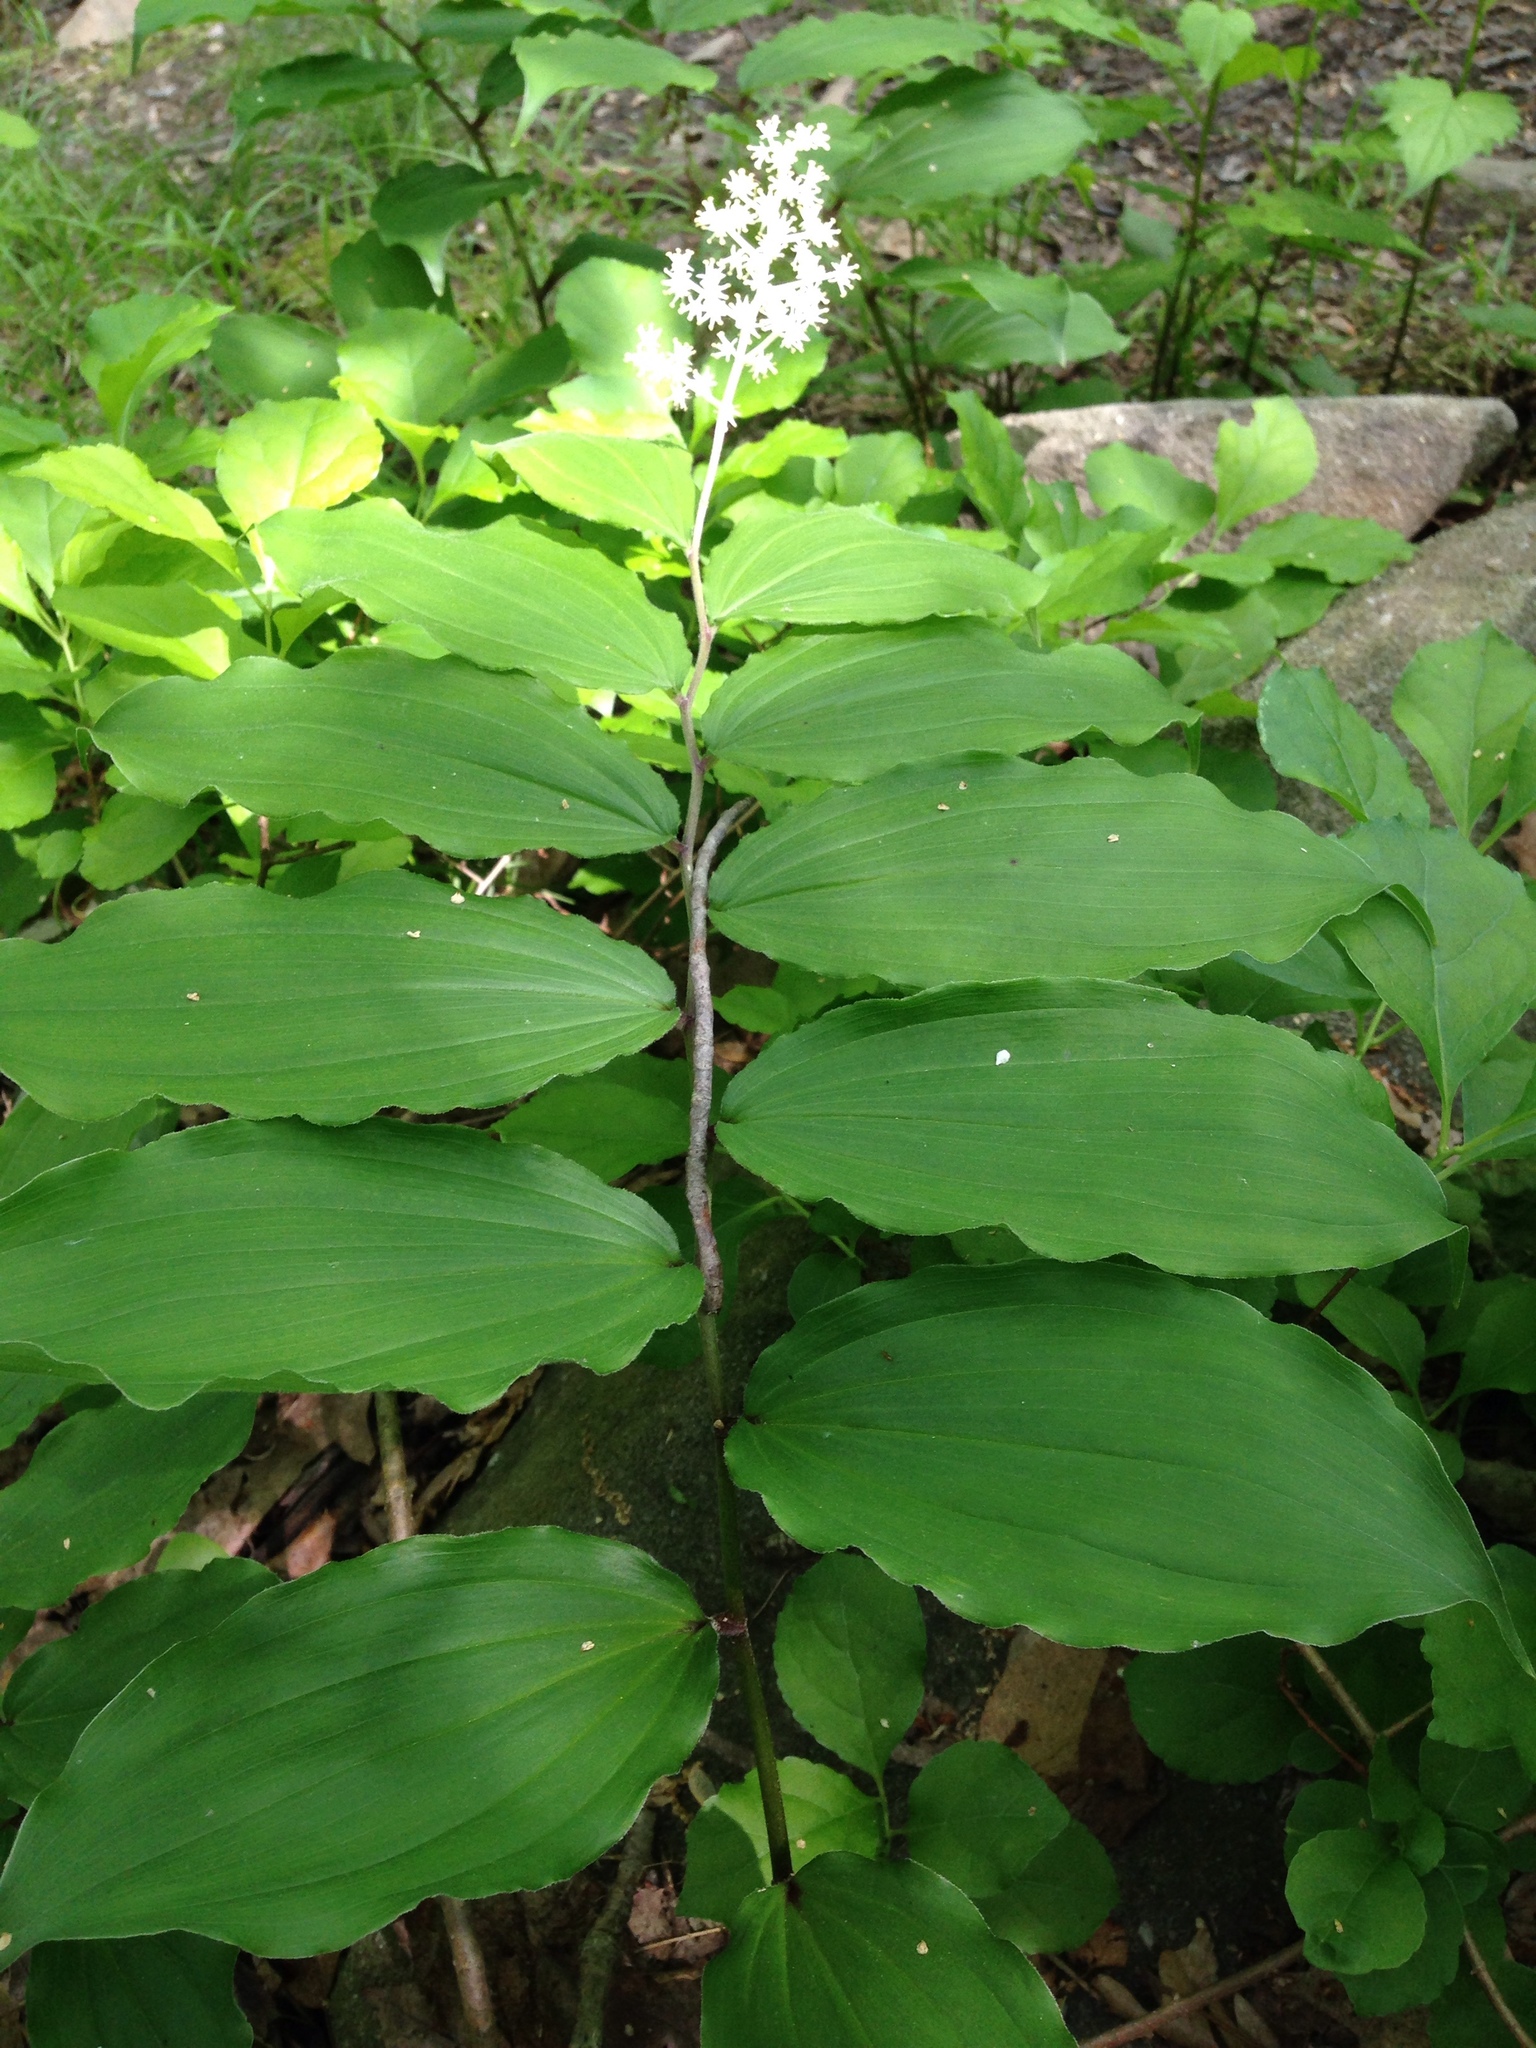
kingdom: Plantae
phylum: Tracheophyta
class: Liliopsida
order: Asparagales
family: Asparagaceae
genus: Maianthemum
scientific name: Maianthemum racemosum
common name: False spikenard
